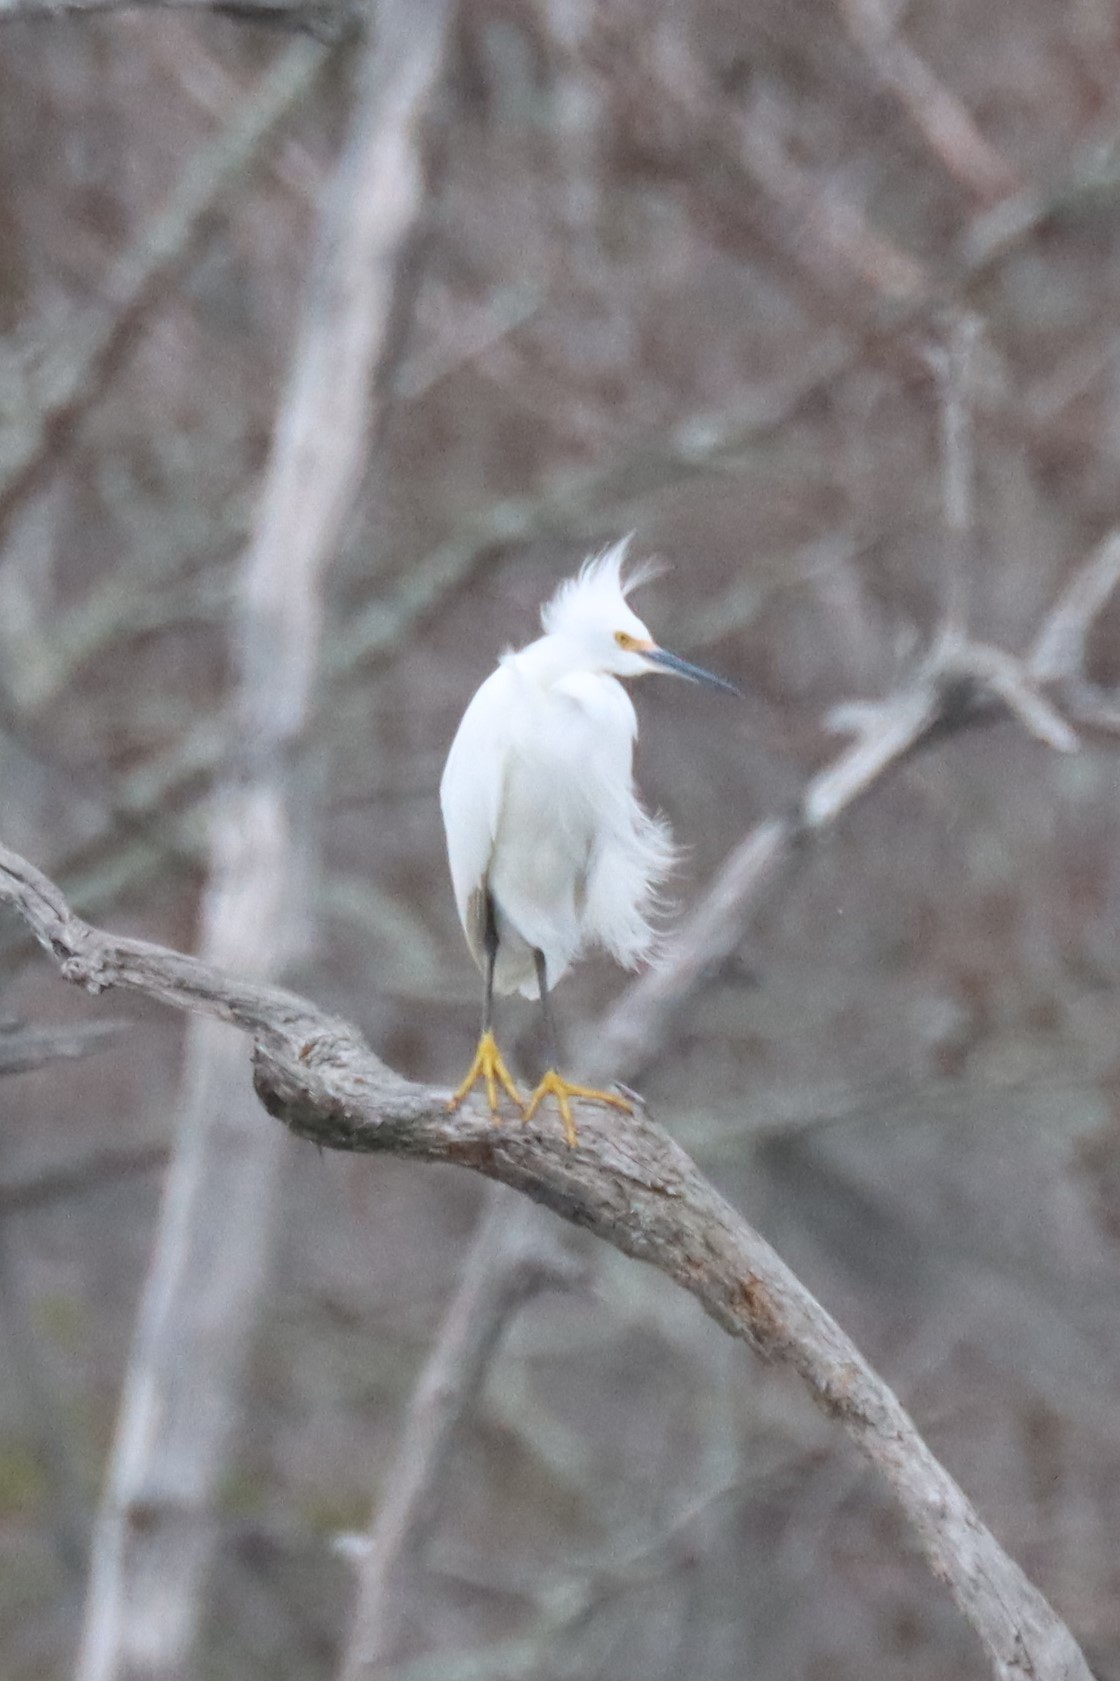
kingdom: Animalia
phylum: Chordata
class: Aves
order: Pelecaniformes
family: Ardeidae
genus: Egretta
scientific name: Egretta thula
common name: Snowy egret
